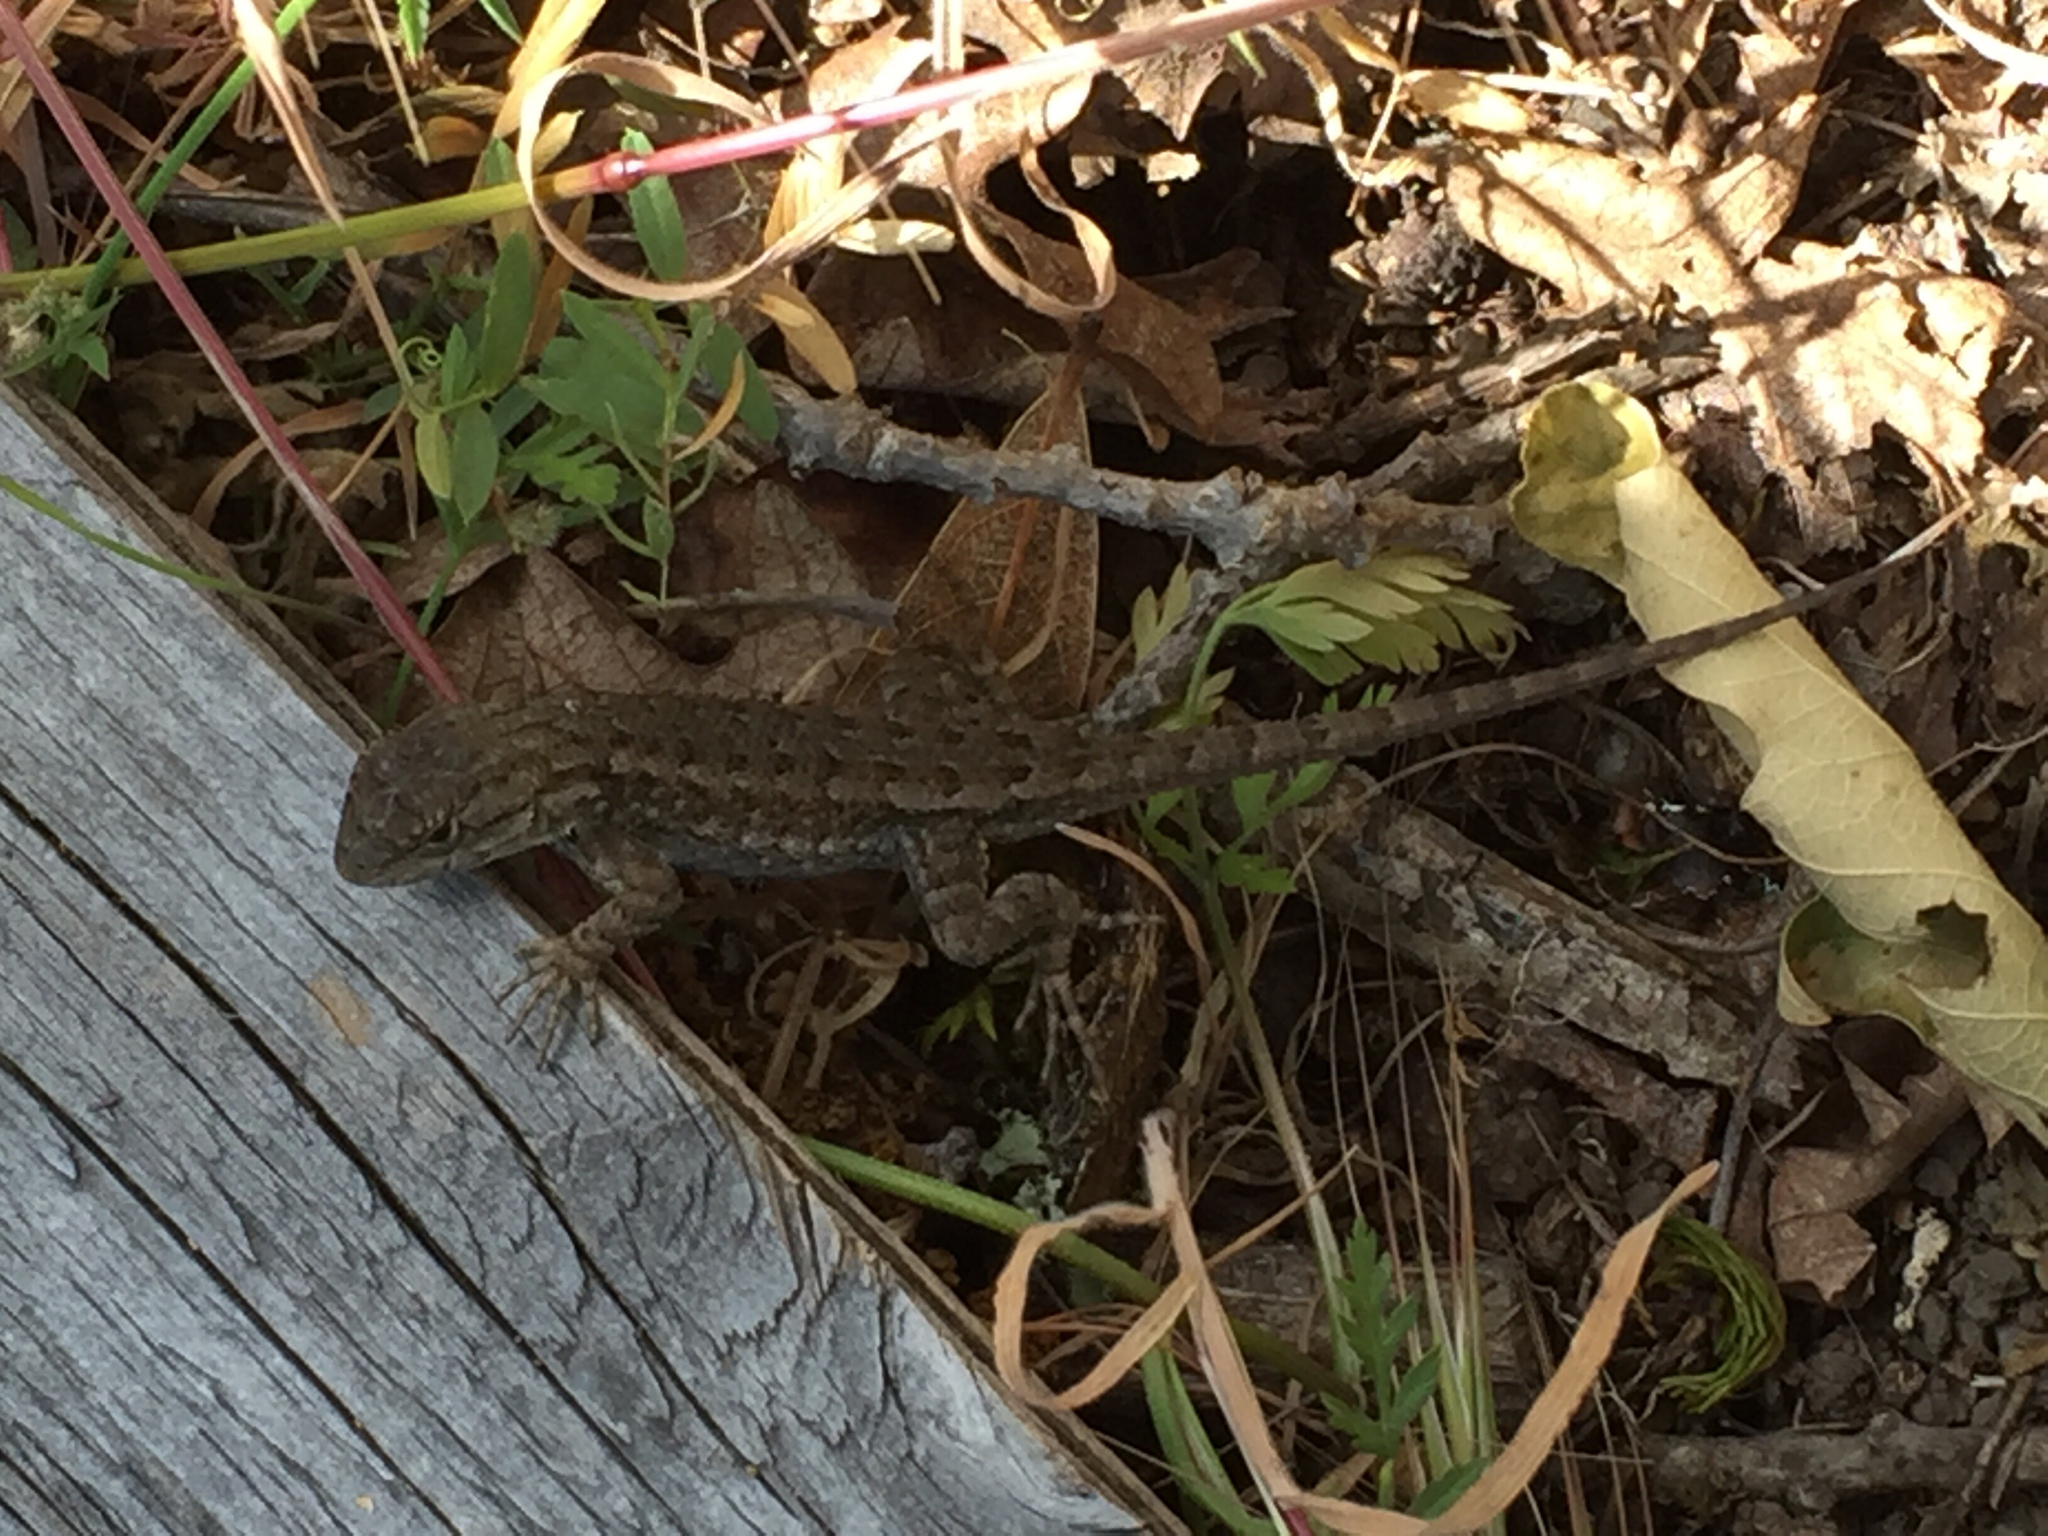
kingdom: Animalia
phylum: Chordata
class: Squamata
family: Phrynosomatidae
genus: Sceloporus
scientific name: Sceloporus occidentalis
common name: Western fence lizard
